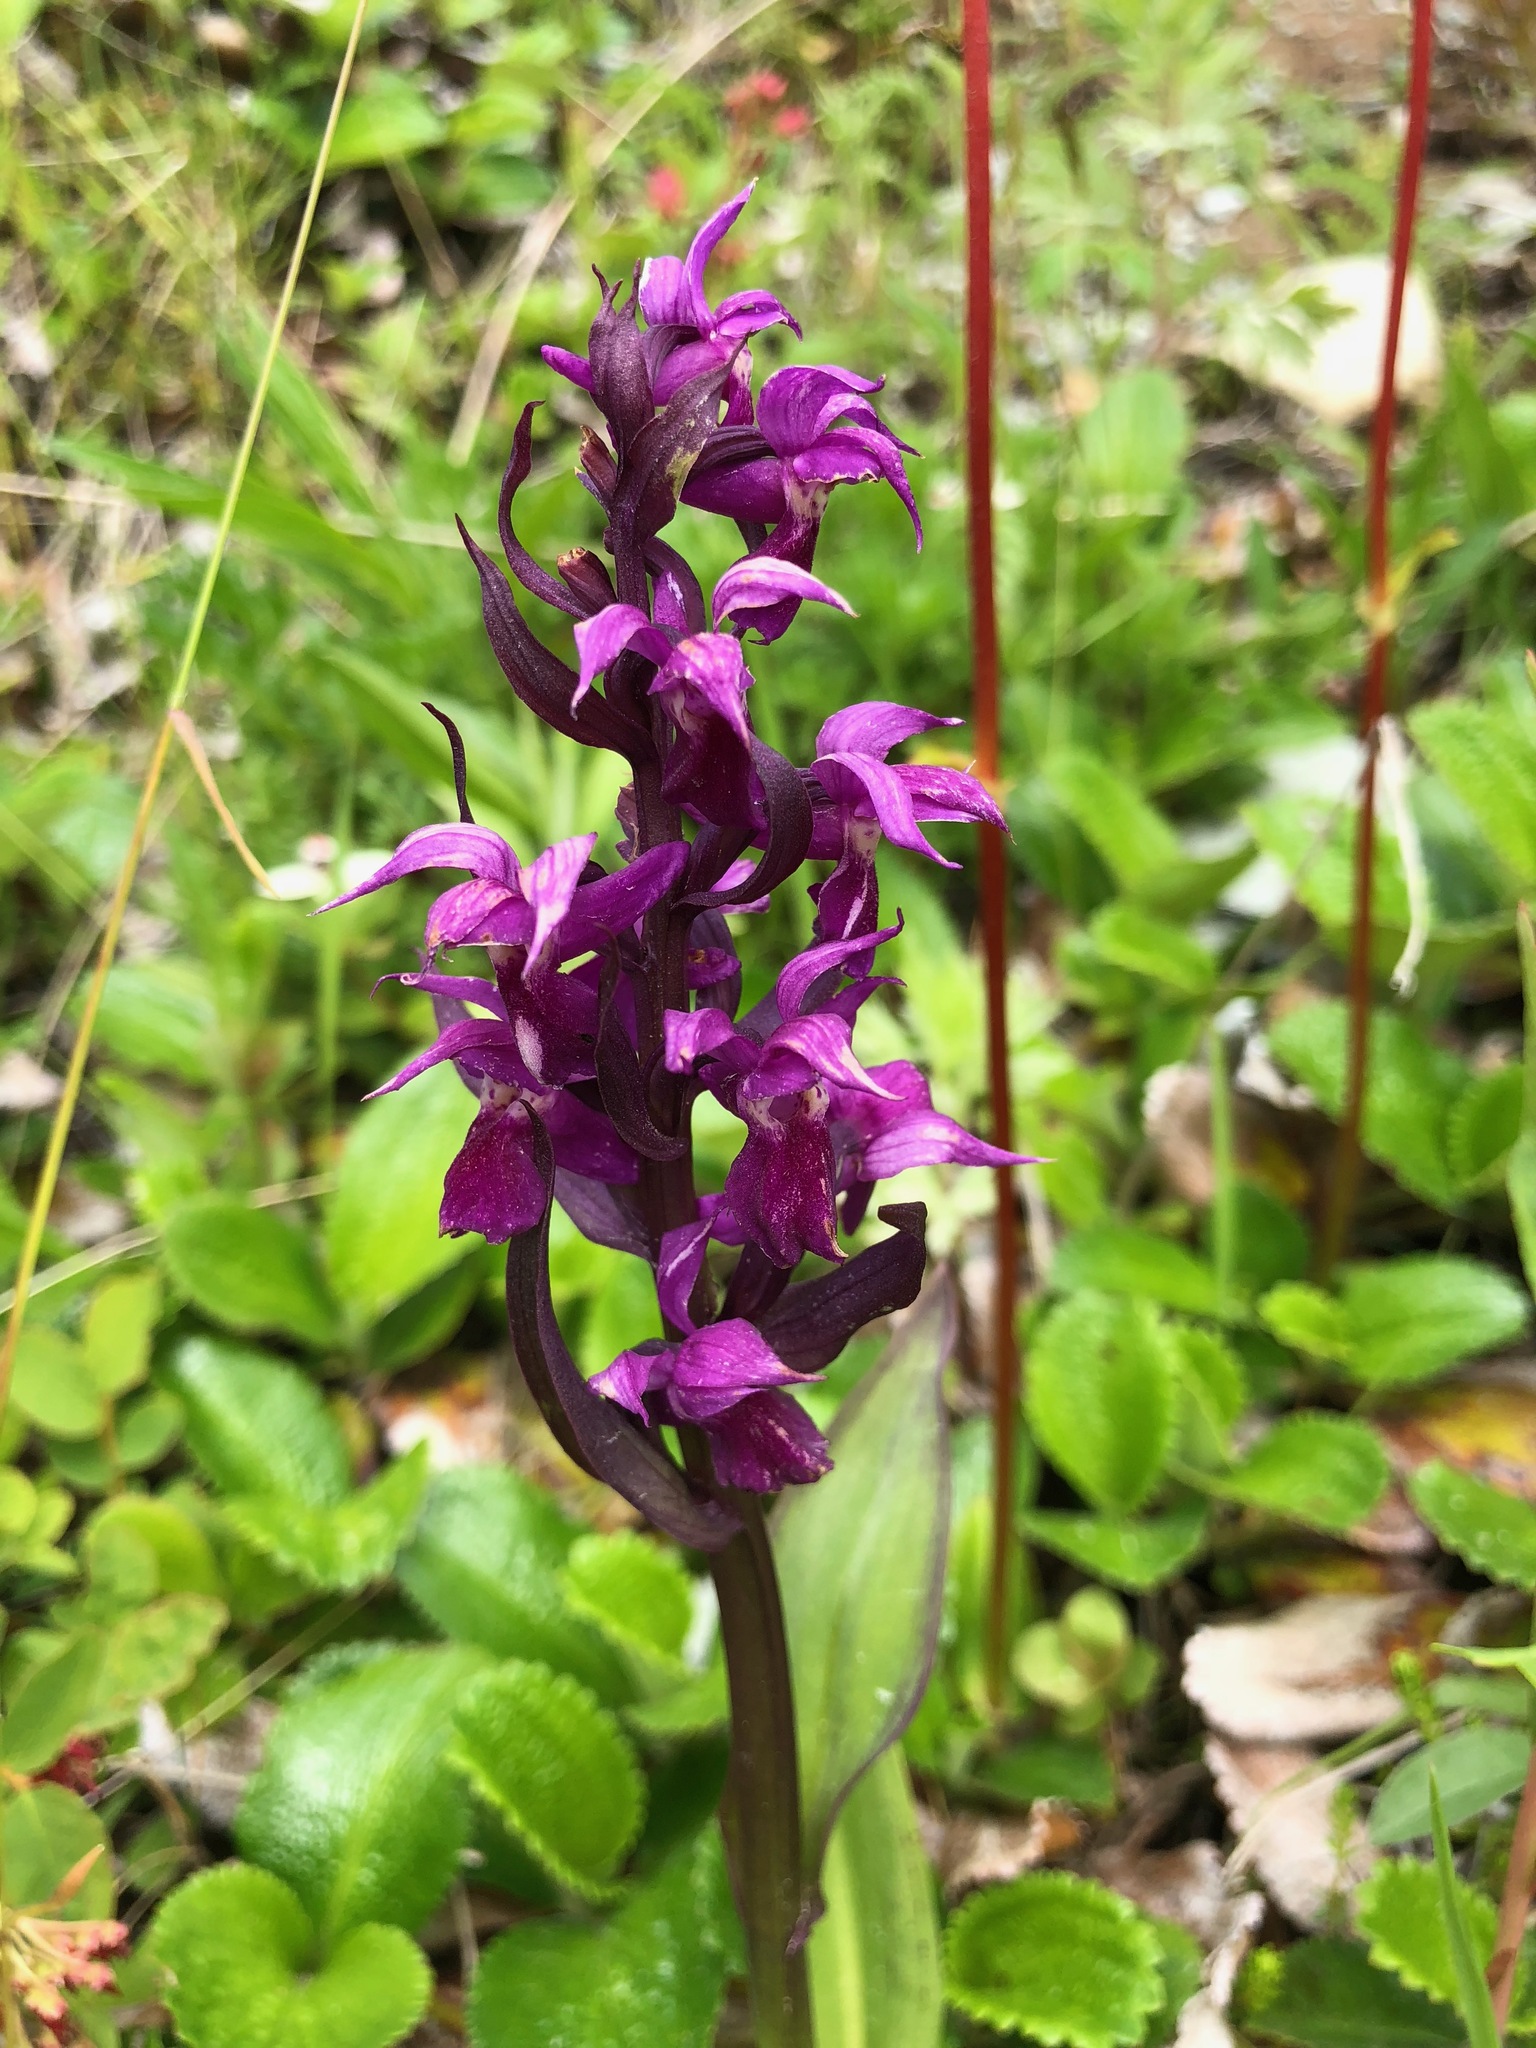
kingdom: Plantae
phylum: Tracheophyta
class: Liliopsida
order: Asparagales
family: Orchidaceae
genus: Dactylorhiza
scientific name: Dactylorhiza aristata
